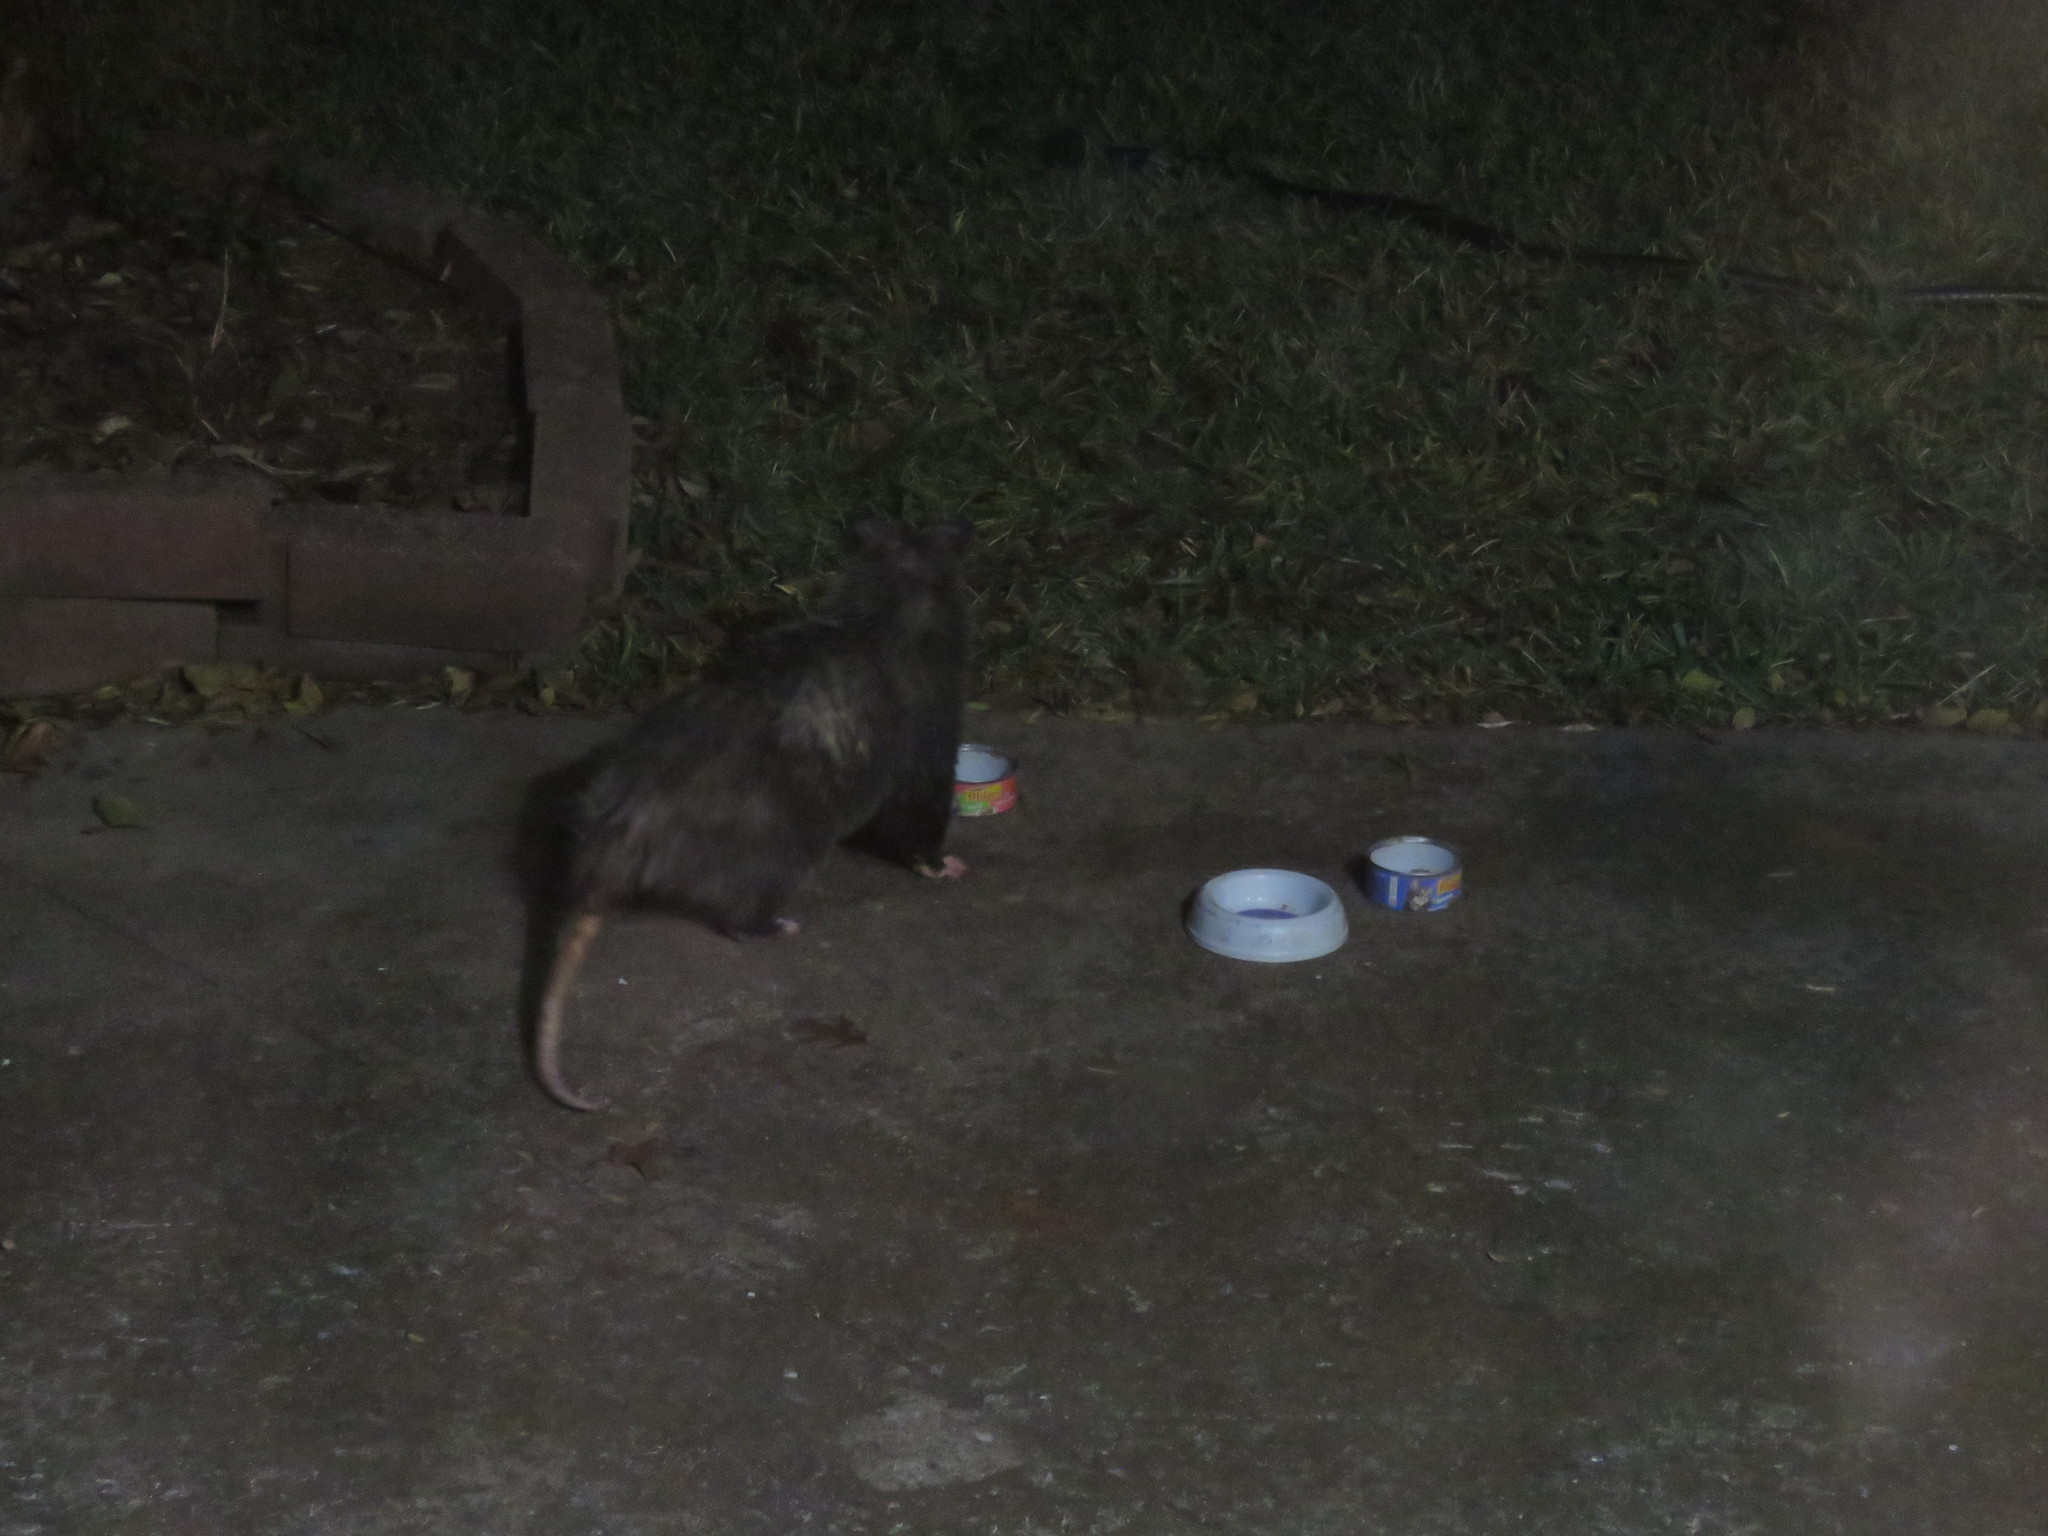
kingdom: Animalia
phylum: Chordata
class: Mammalia
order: Didelphimorphia
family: Didelphidae
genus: Didelphis
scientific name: Didelphis virginiana
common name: Virginia opossum
